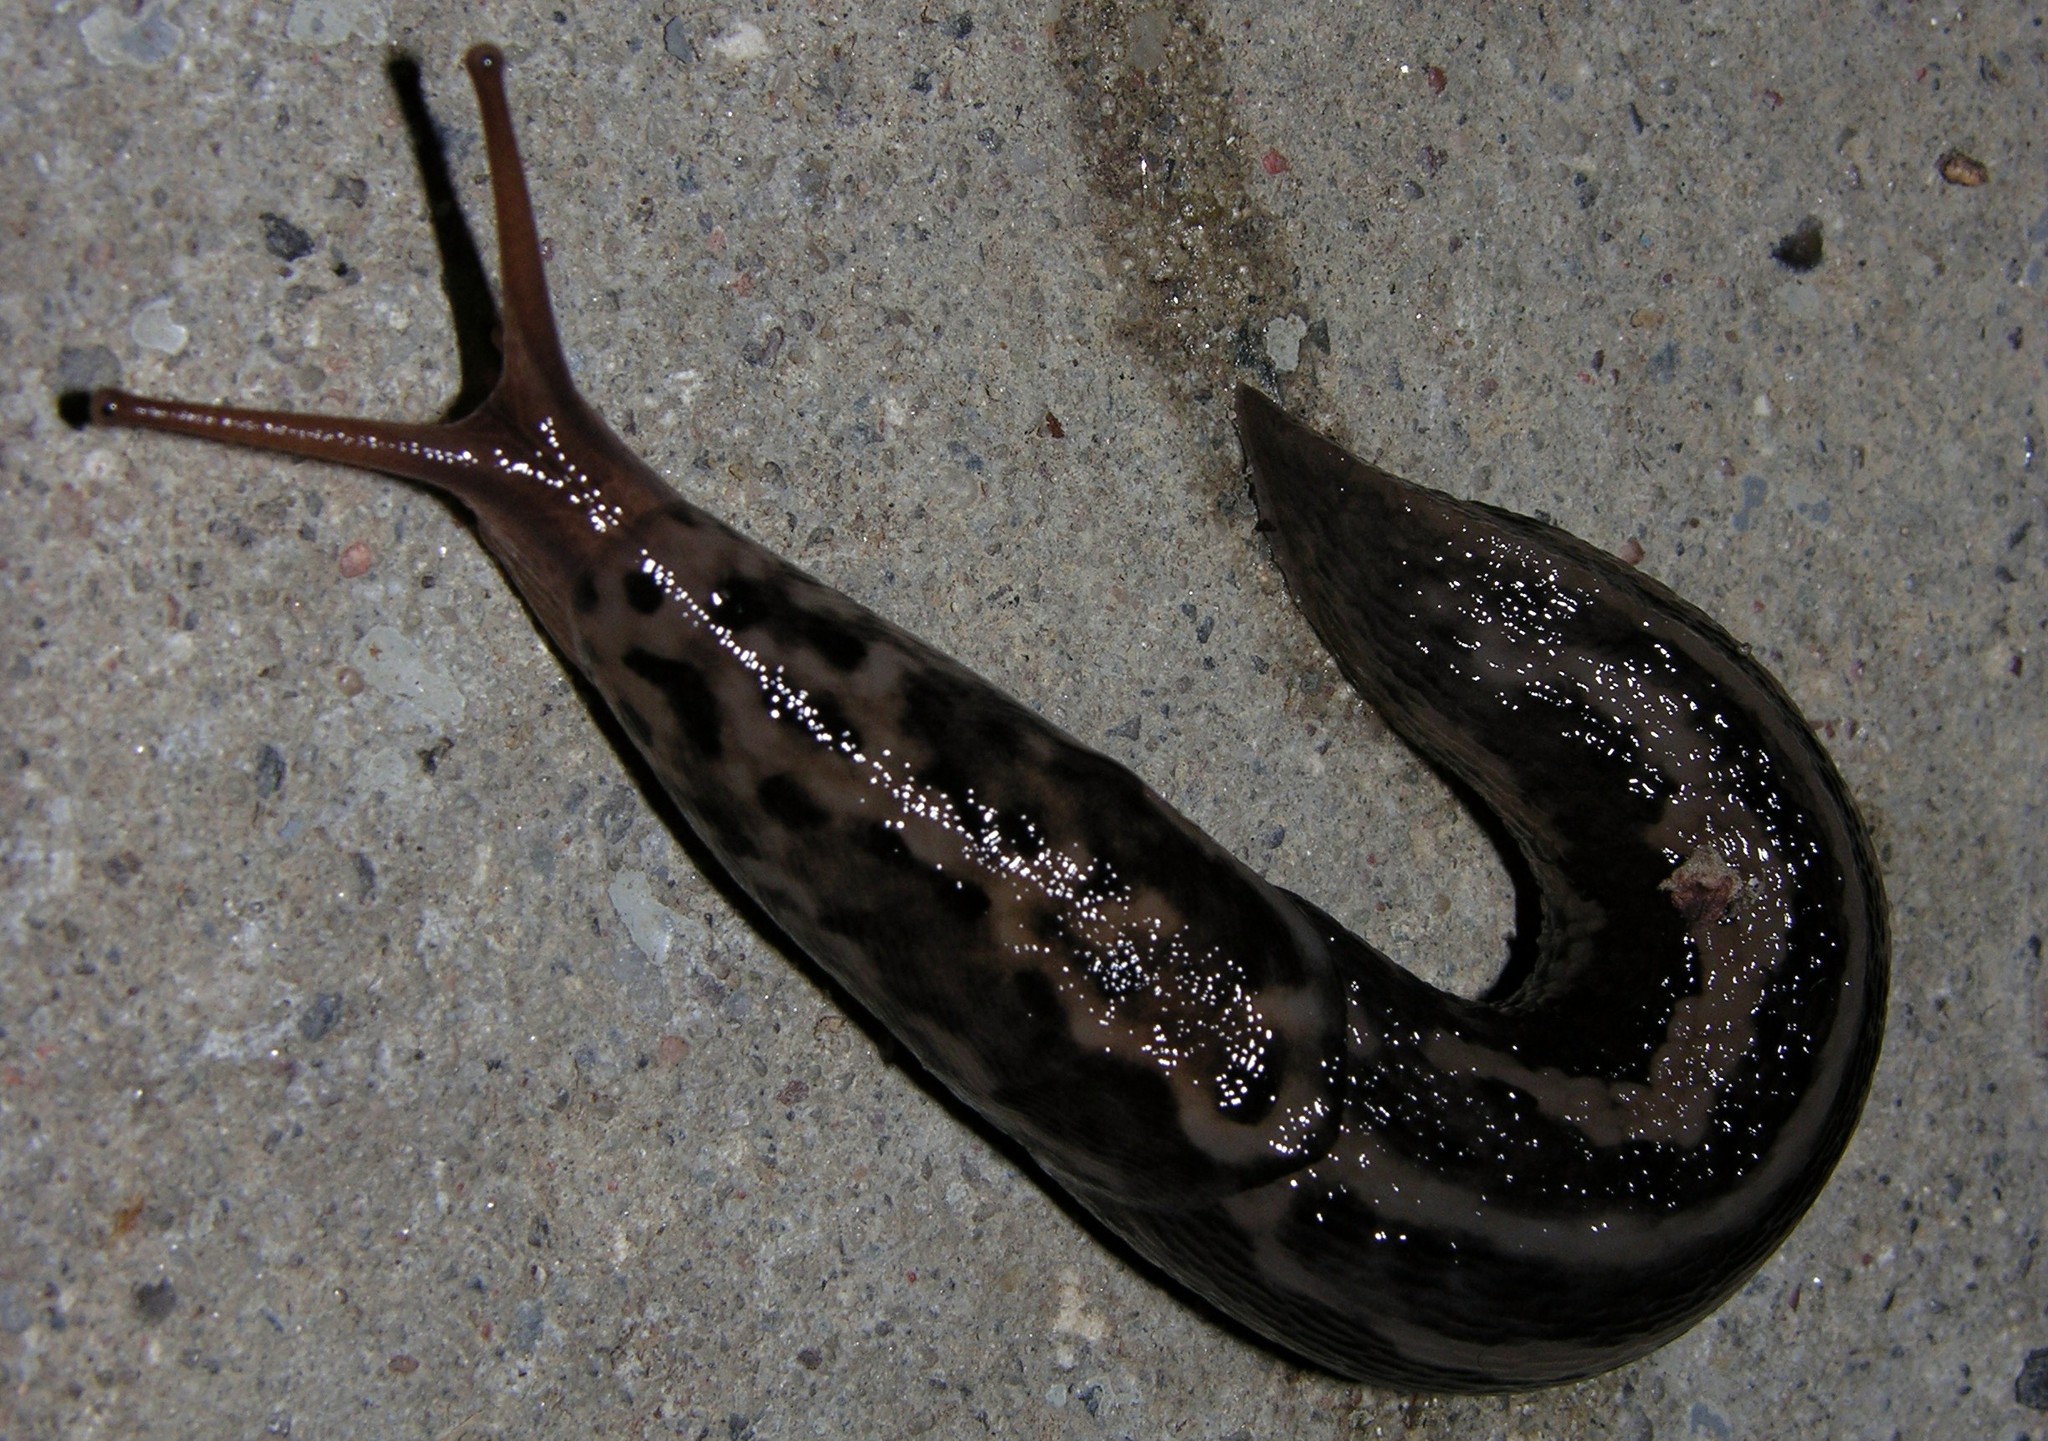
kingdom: Animalia
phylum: Mollusca
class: Gastropoda
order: Stylommatophora
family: Limacidae
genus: Limax
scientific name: Limax maximus
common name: Great grey slug
